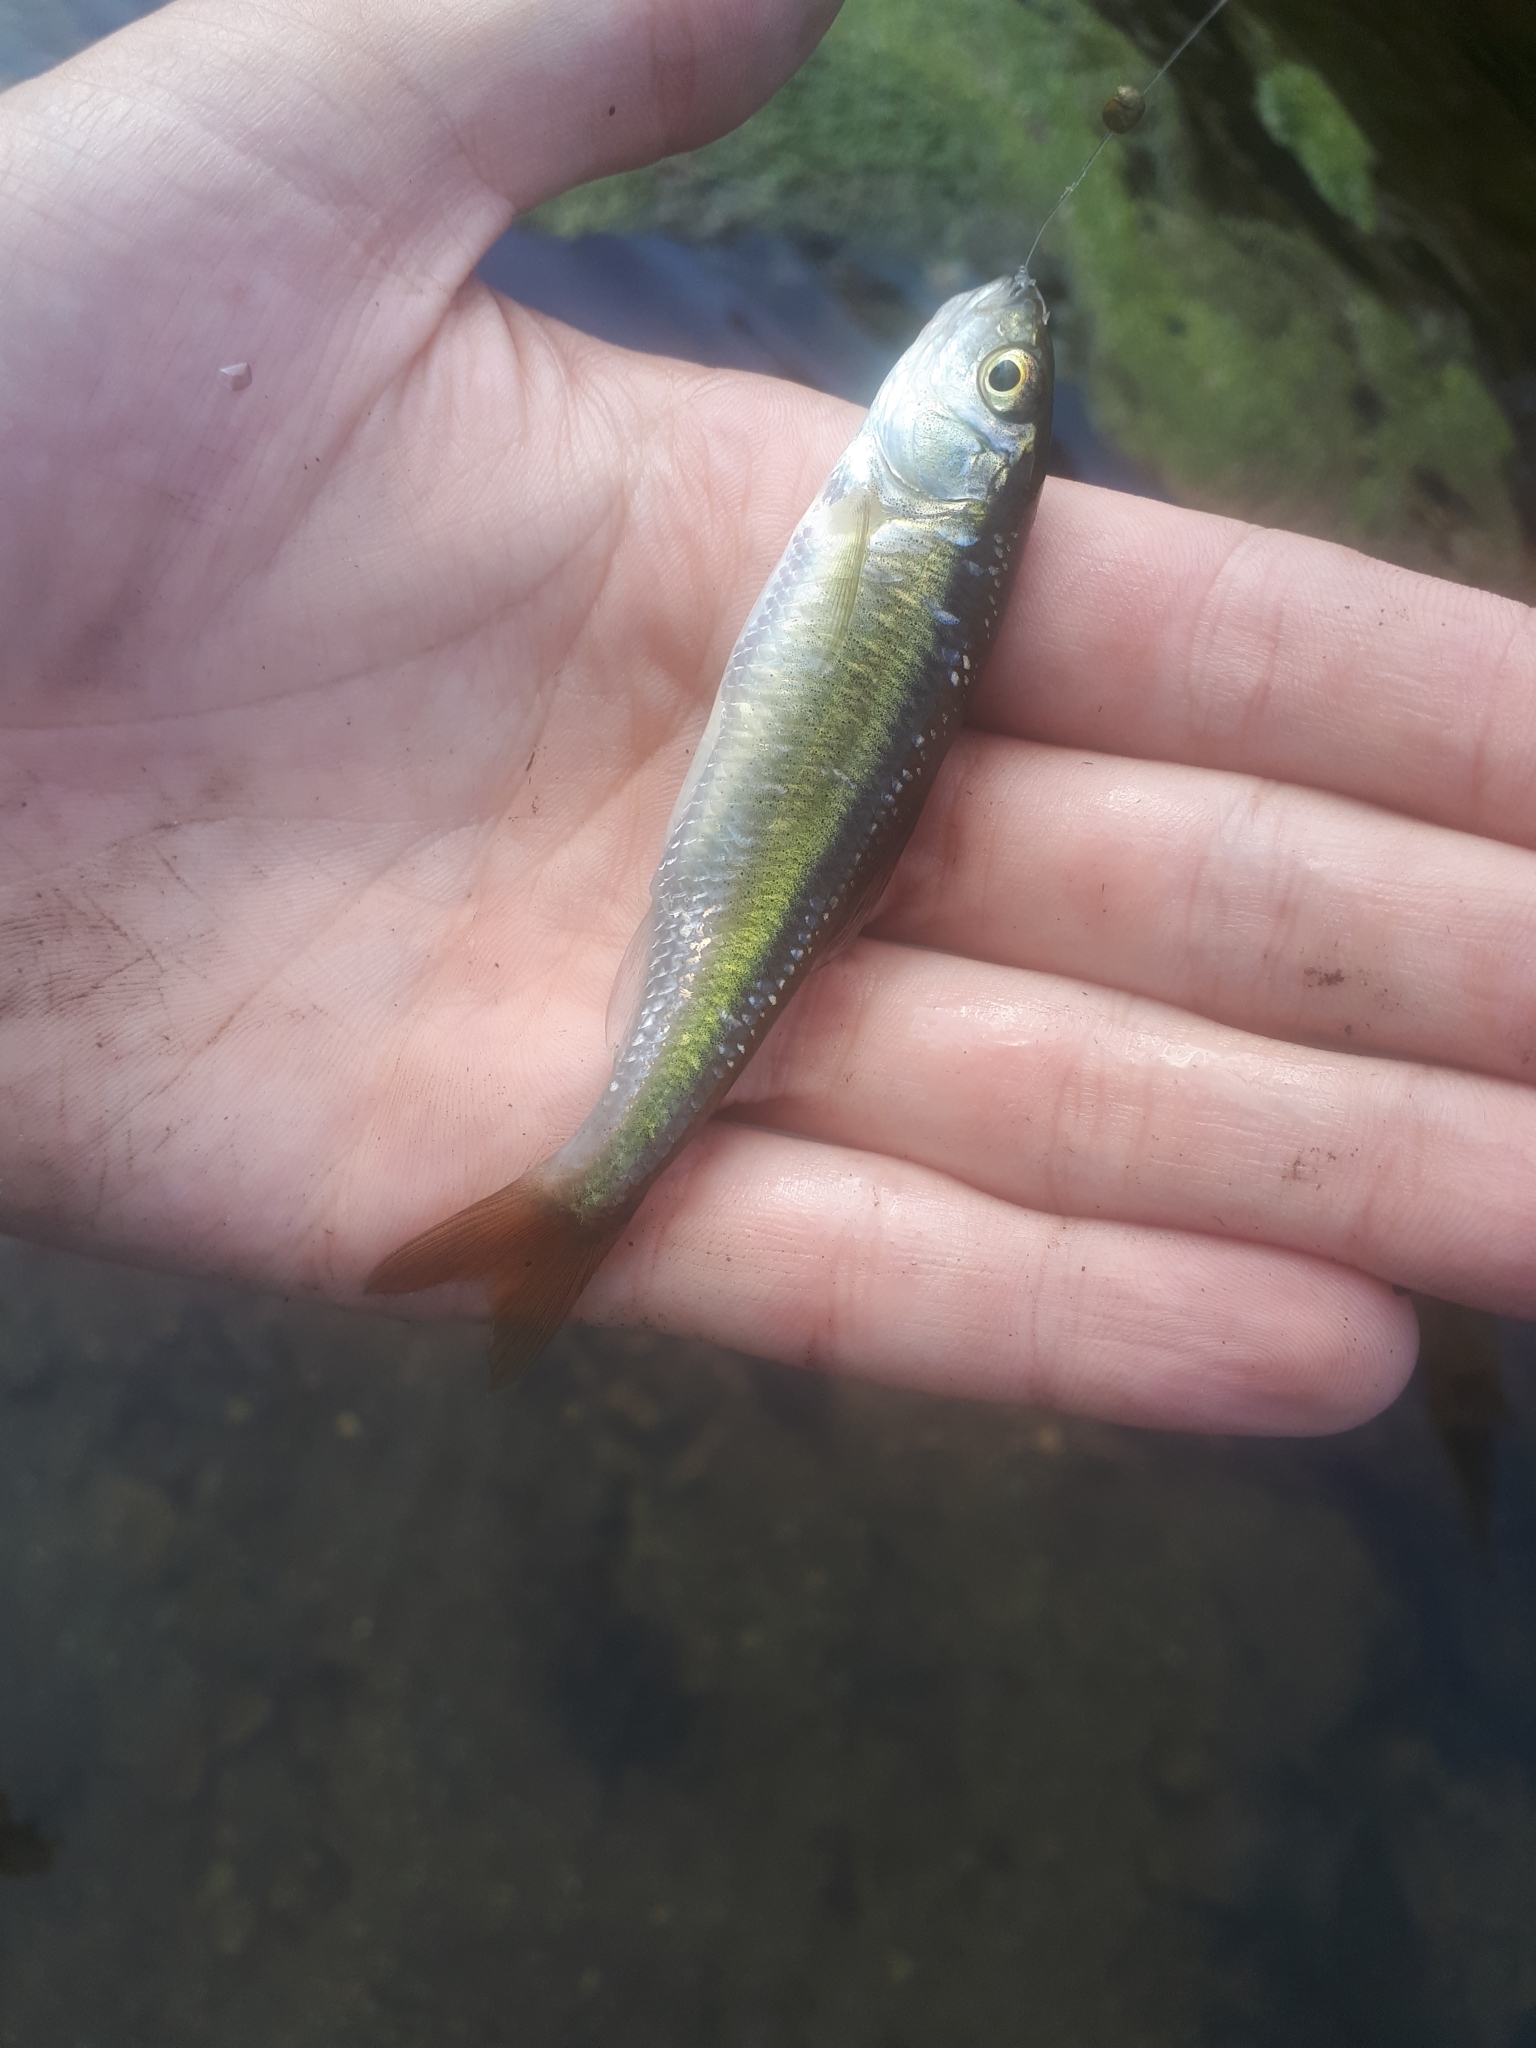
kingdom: Animalia
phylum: Chordata
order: Cypriniformes
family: Cyprinidae
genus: Luxilus
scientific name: Luxilus cornutus
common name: Common shiner
